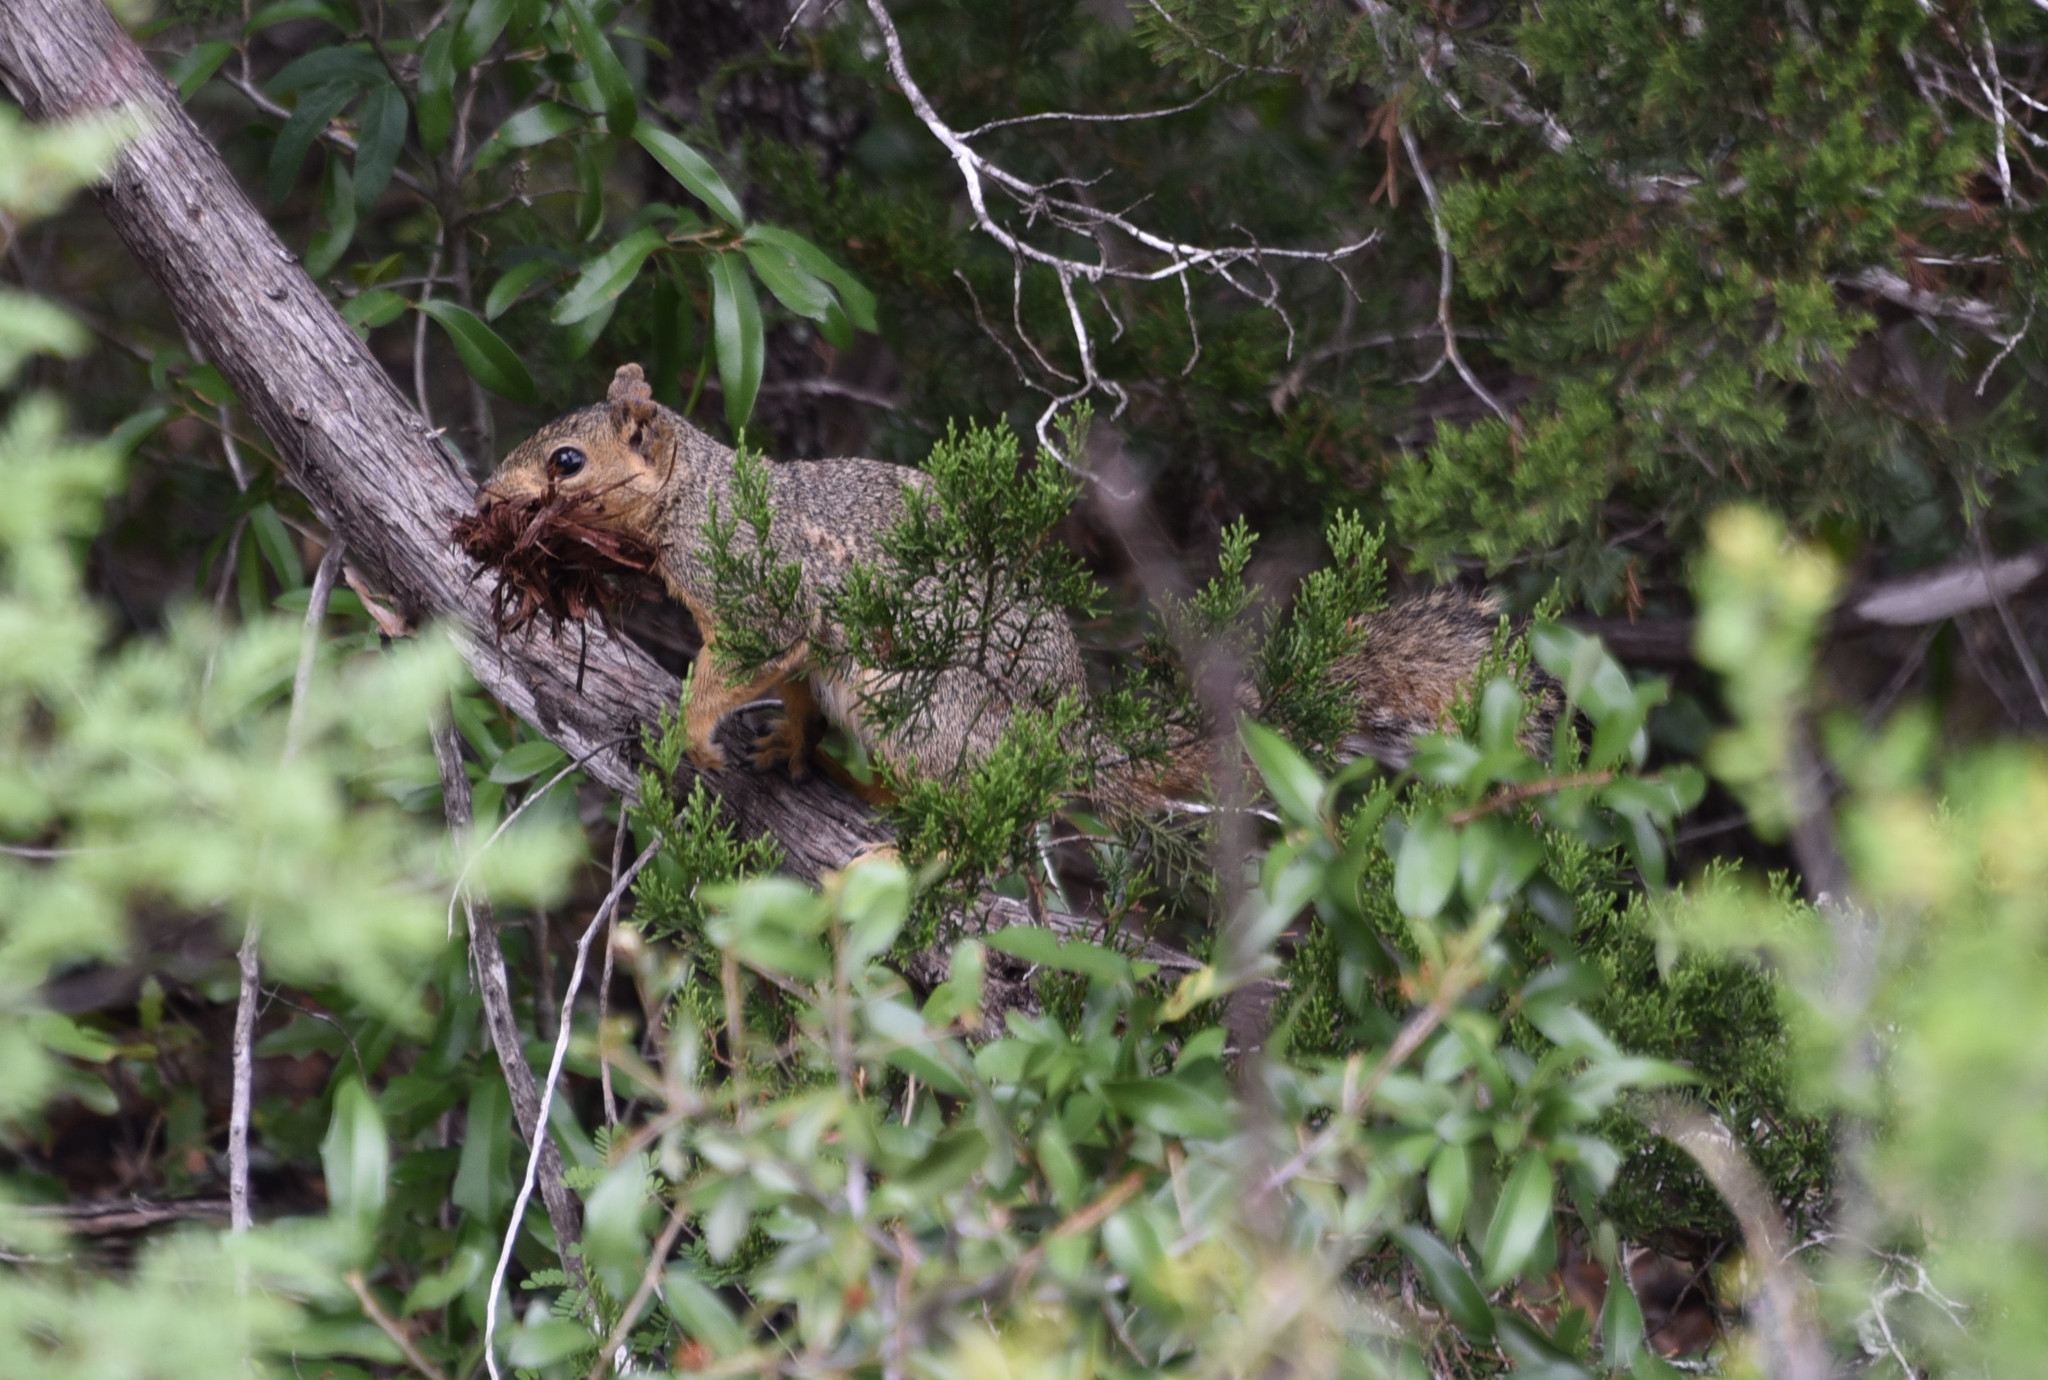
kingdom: Animalia
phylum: Chordata
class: Mammalia
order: Rodentia
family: Sciuridae
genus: Sciurus
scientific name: Sciurus niger
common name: Fox squirrel
